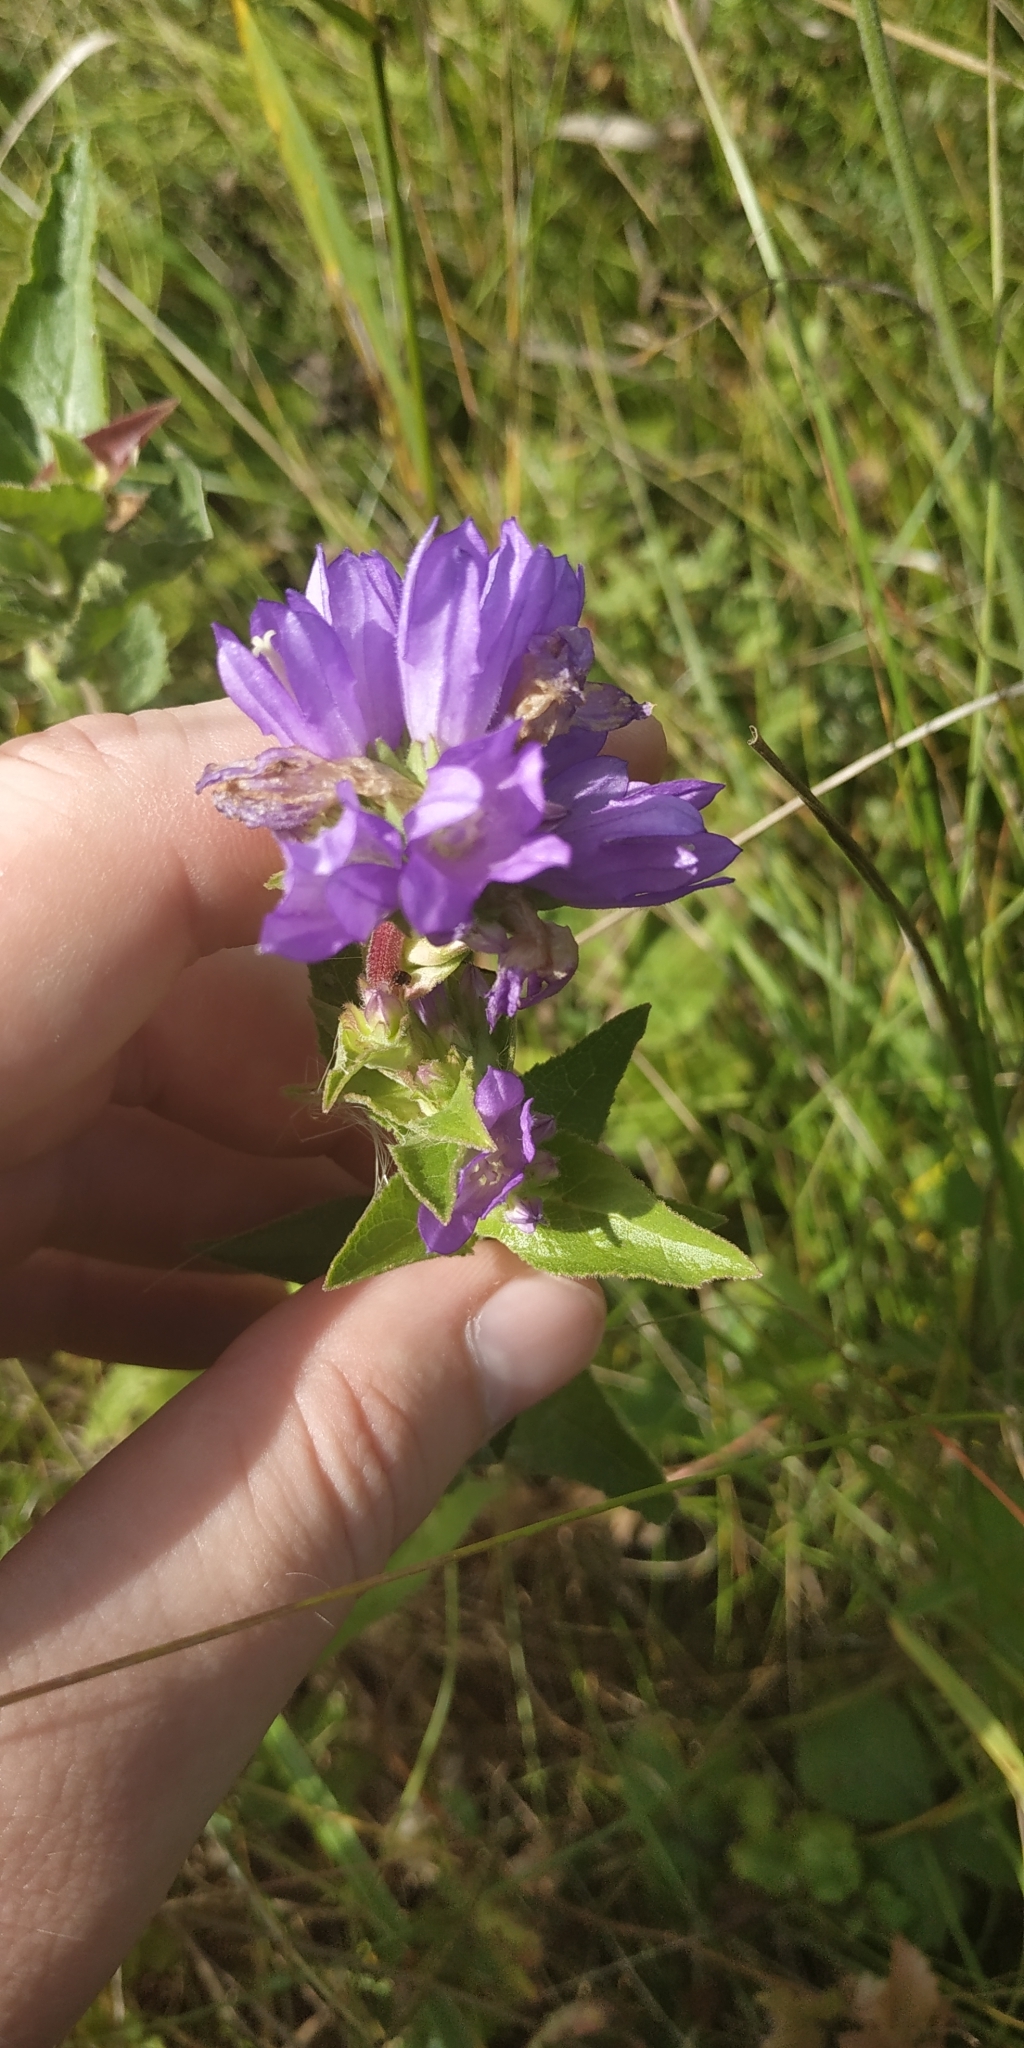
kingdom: Plantae
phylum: Tracheophyta
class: Magnoliopsida
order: Asterales
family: Campanulaceae
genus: Campanula
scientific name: Campanula glomerata
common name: Clustered bellflower
